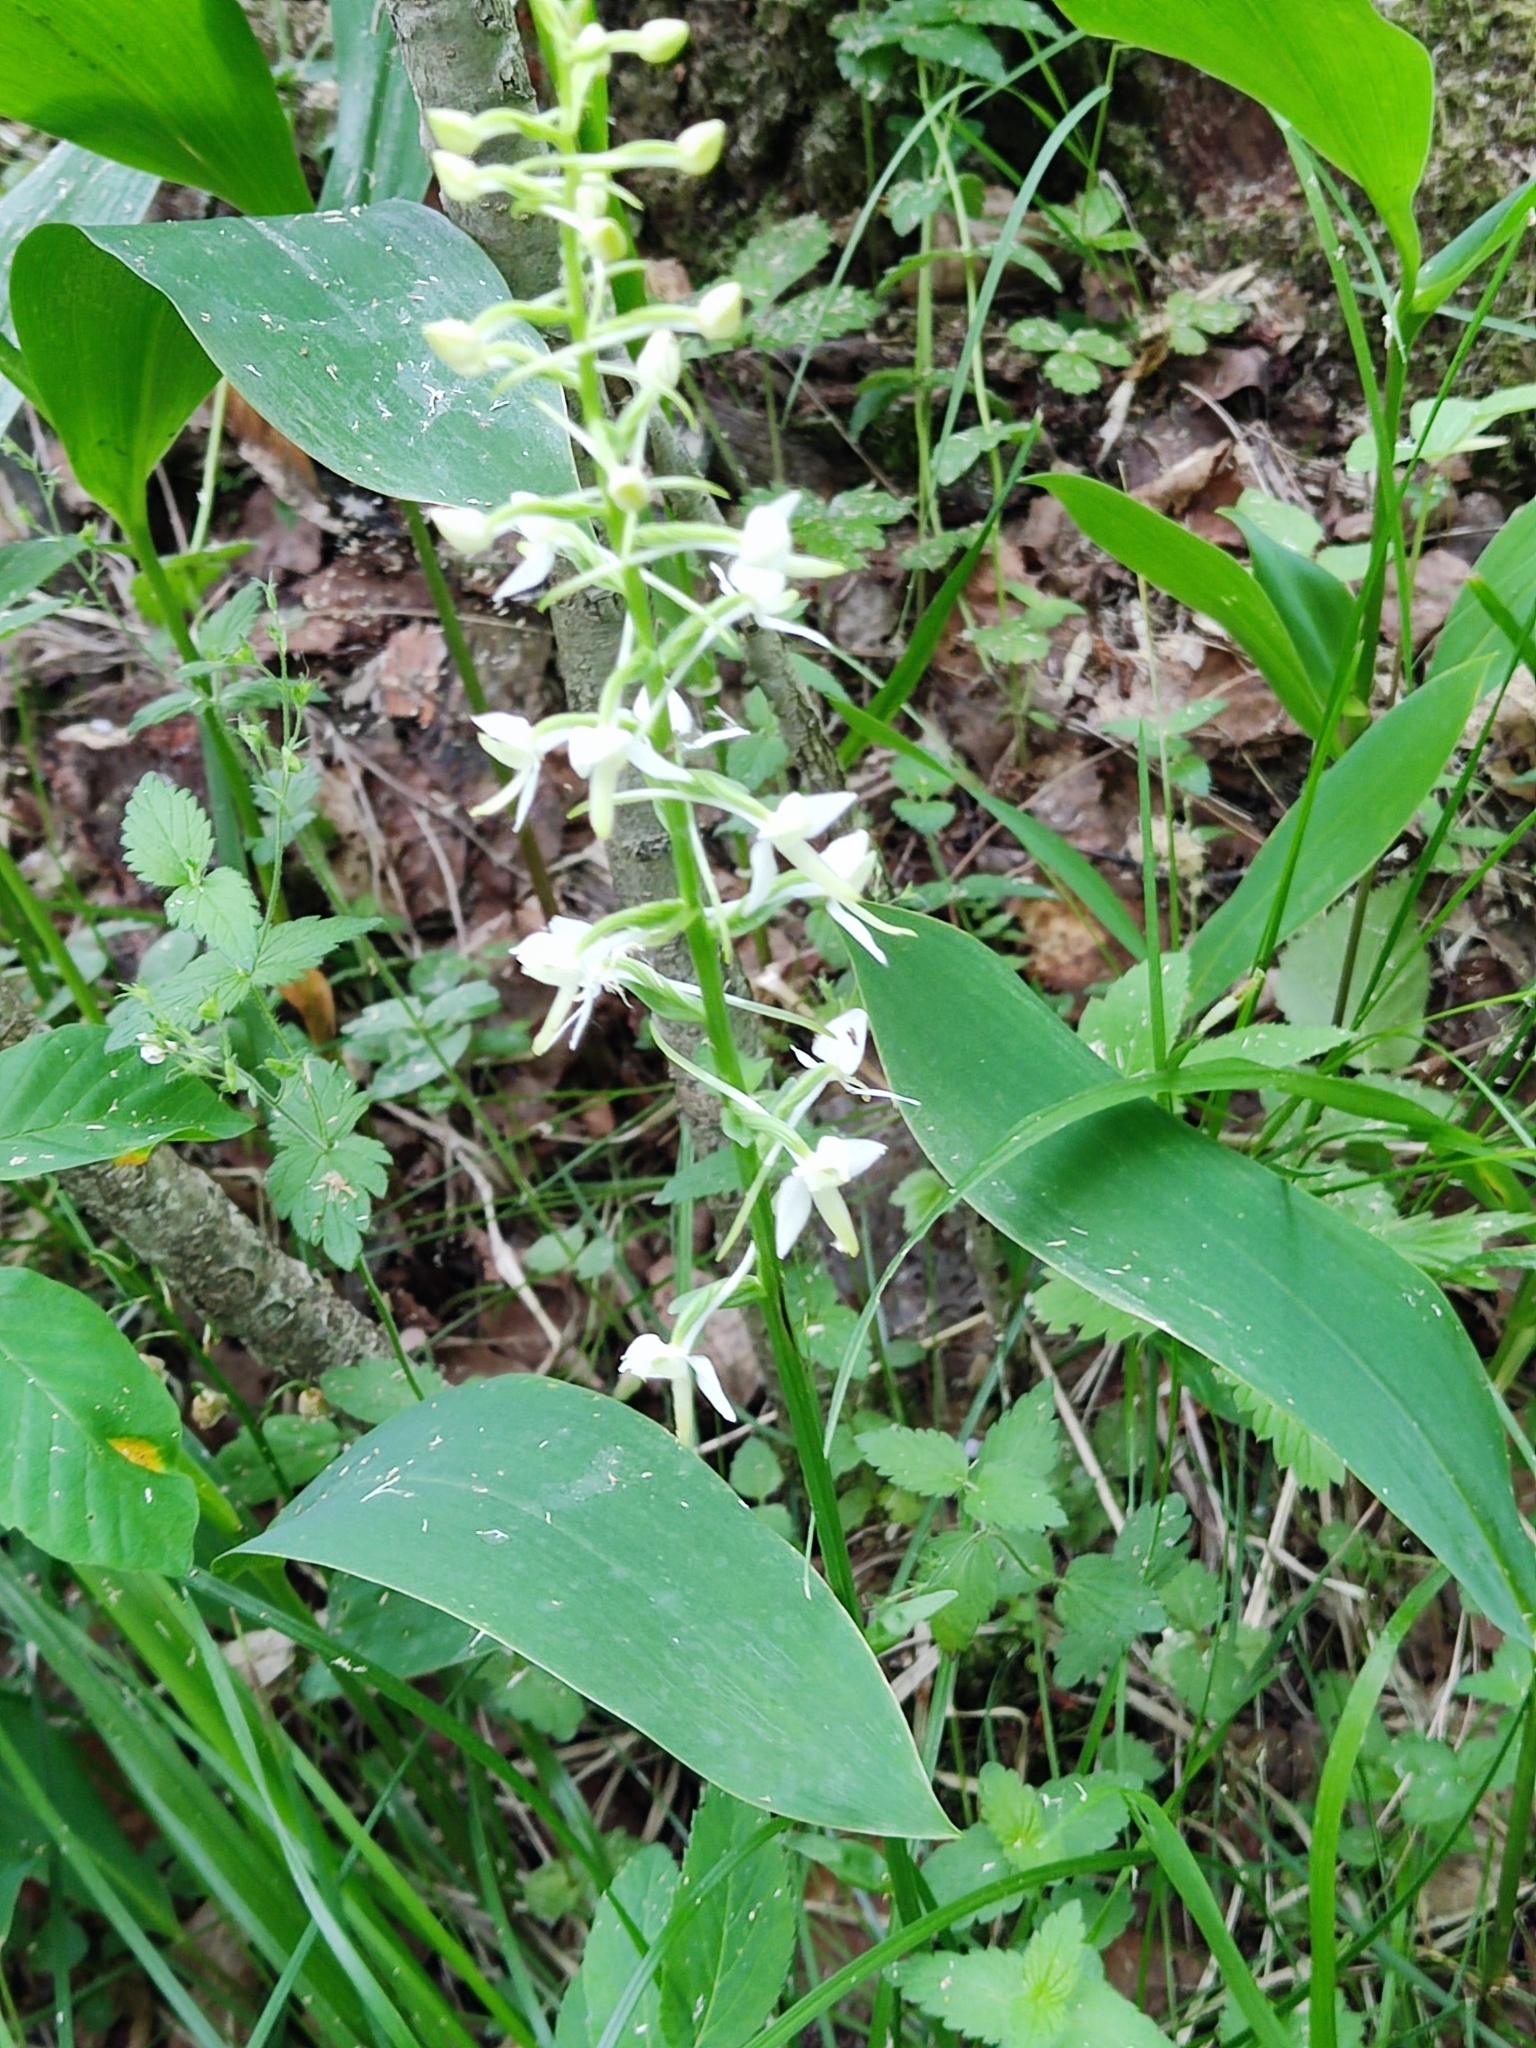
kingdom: Plantae
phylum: Tracheophyta
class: Liliopsida
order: Asparagales
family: Orchidaceae
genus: Platanthera
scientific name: Platanthera chlorantha
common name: Greater butterfly-orchid
